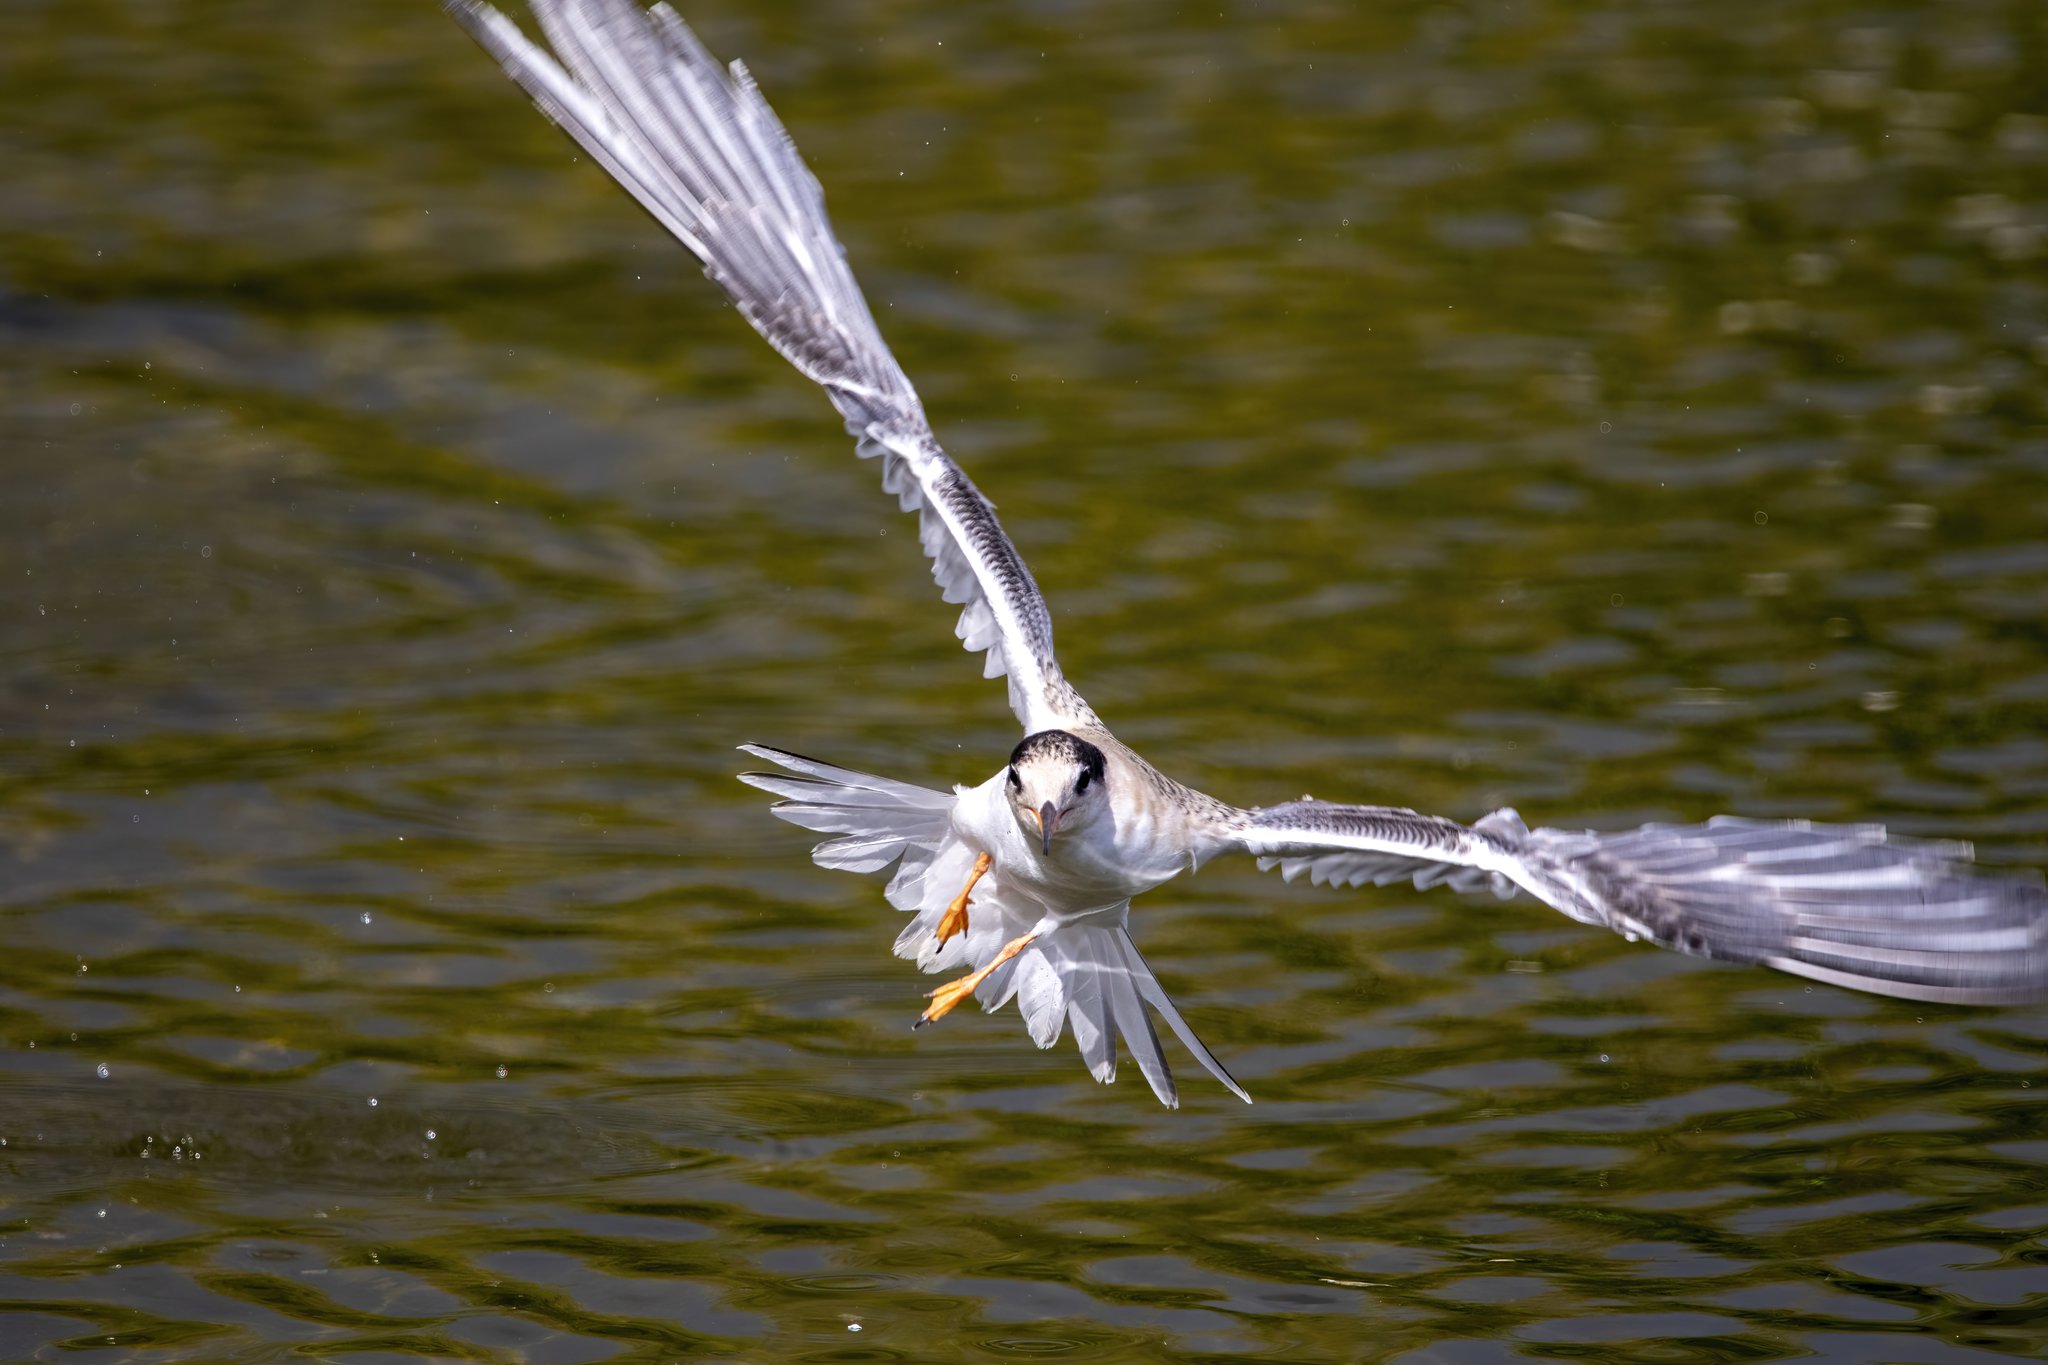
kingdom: Animalia
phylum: Chordata
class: Aves
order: Charadriiformes
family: Laridae
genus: Sterna
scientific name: Sterna hirundo
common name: Common tern
